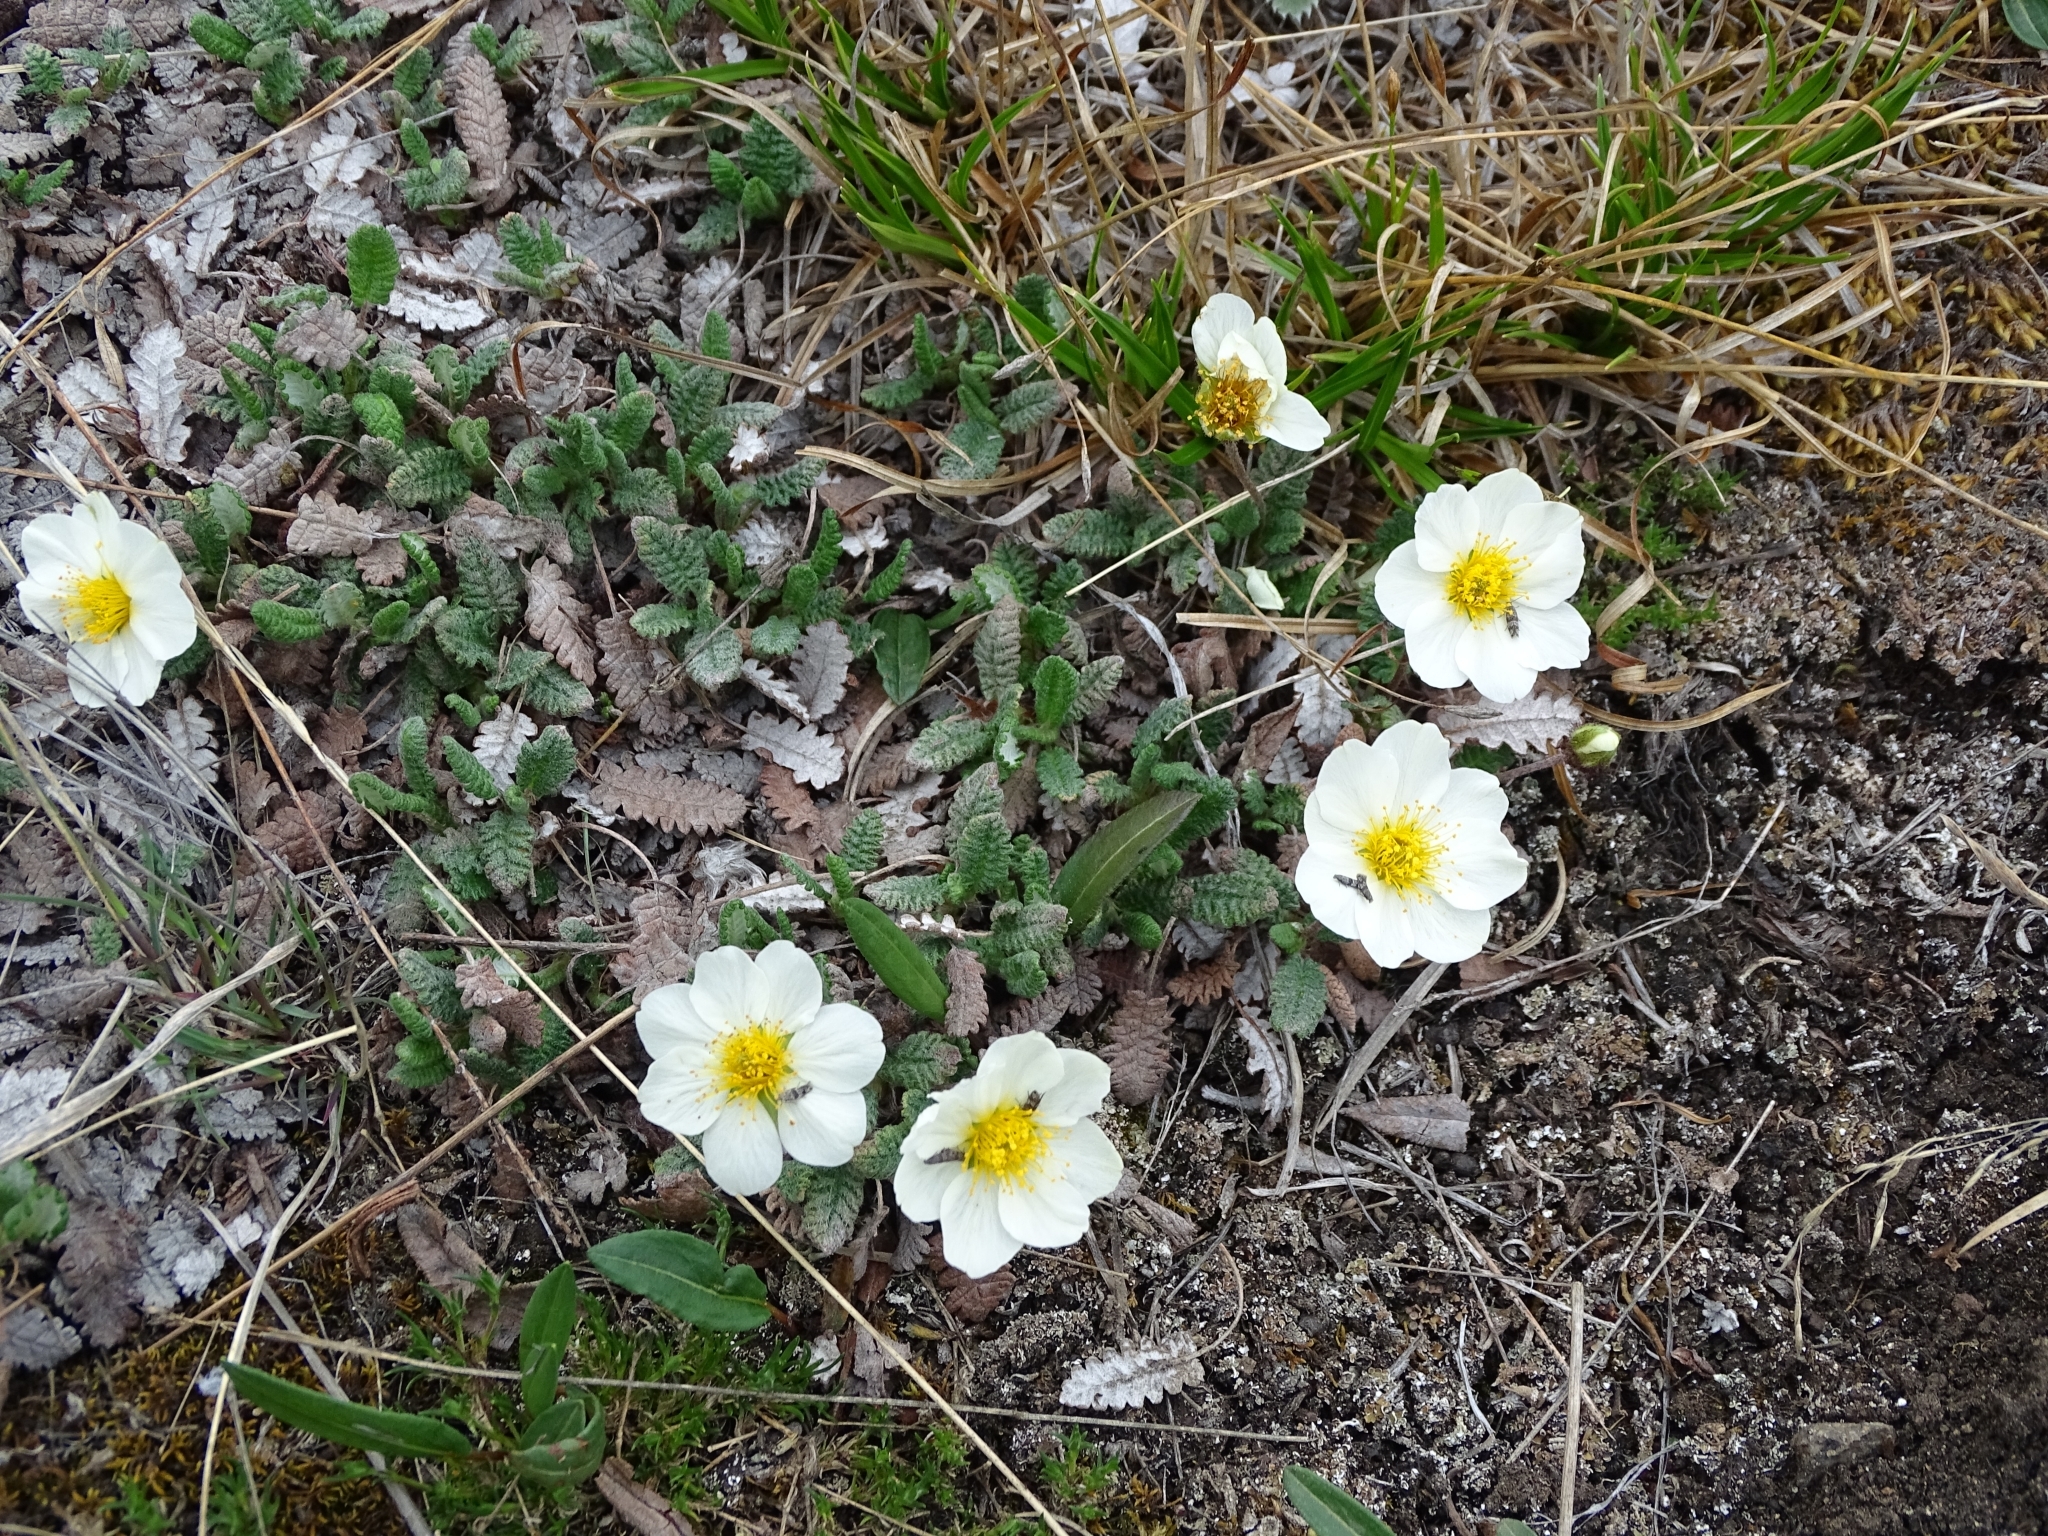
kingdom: Plantae
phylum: Tracheophyta
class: Magnoliopsida
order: Rosales
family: Rosaceae
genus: Dryas
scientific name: Dryas octopetala
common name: Eight-petal mountain-avens
